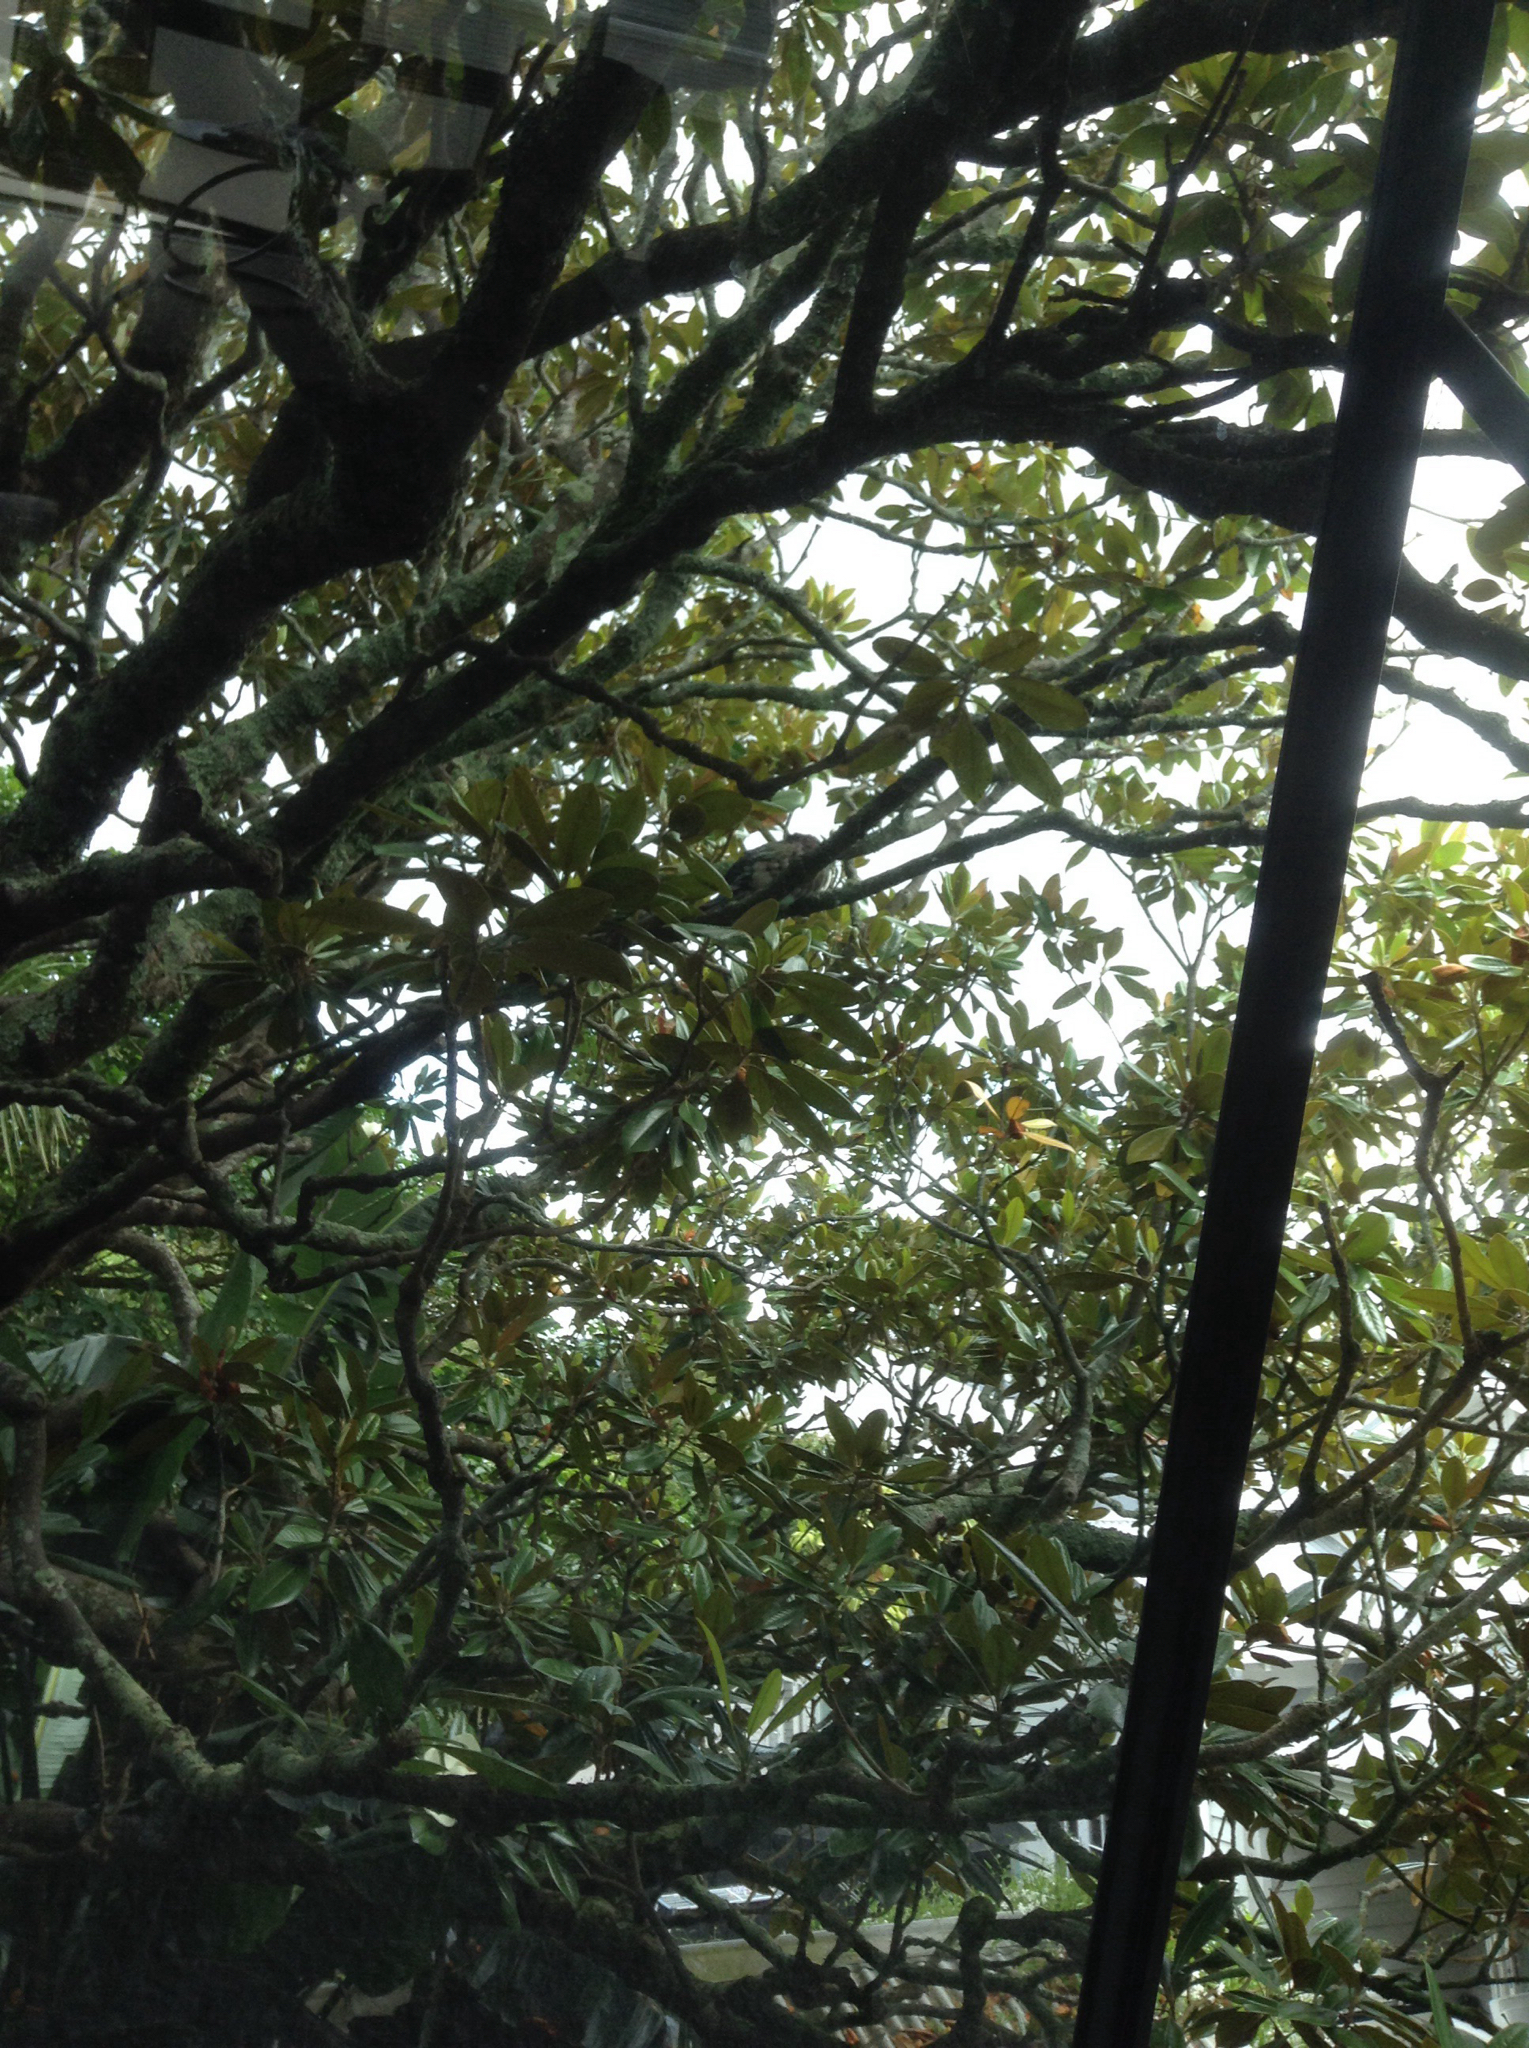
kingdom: Animalia
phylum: Chordata
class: Aves
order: Columbiformes
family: Columbidae
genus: Hemiphaga
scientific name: Hemiphaga novaeseelandiae
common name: New zealand pigeon
